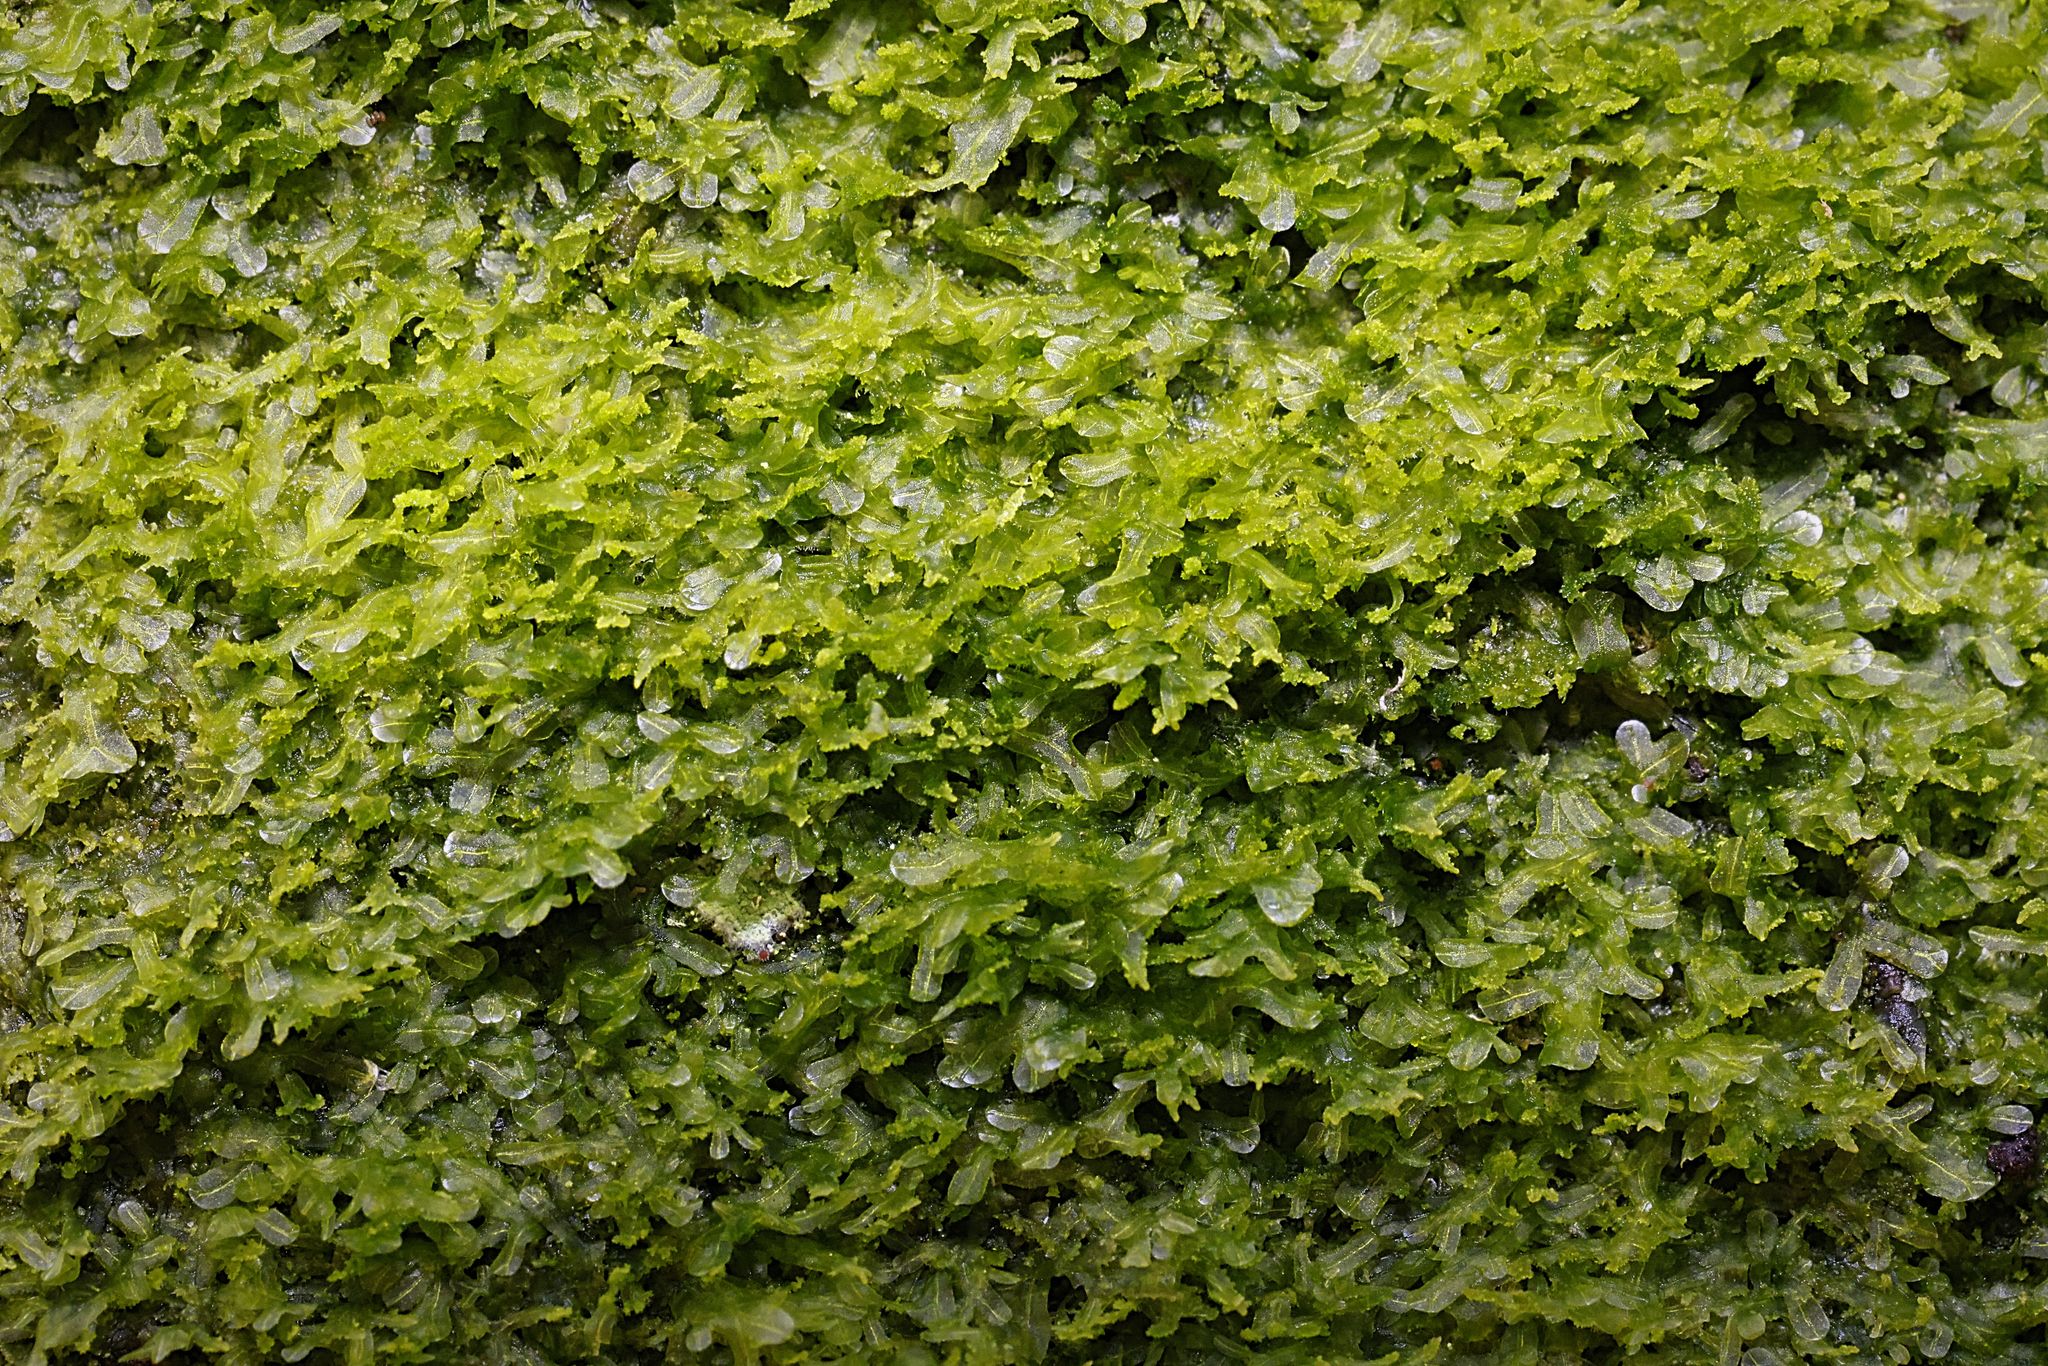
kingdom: Plantae
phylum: Marchantiophyta
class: Jungermanniopsida
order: Metzgeriales
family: Metzgeriaceae
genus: Metzgeria
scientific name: Metzgeria violacea
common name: Blueish veilwort
